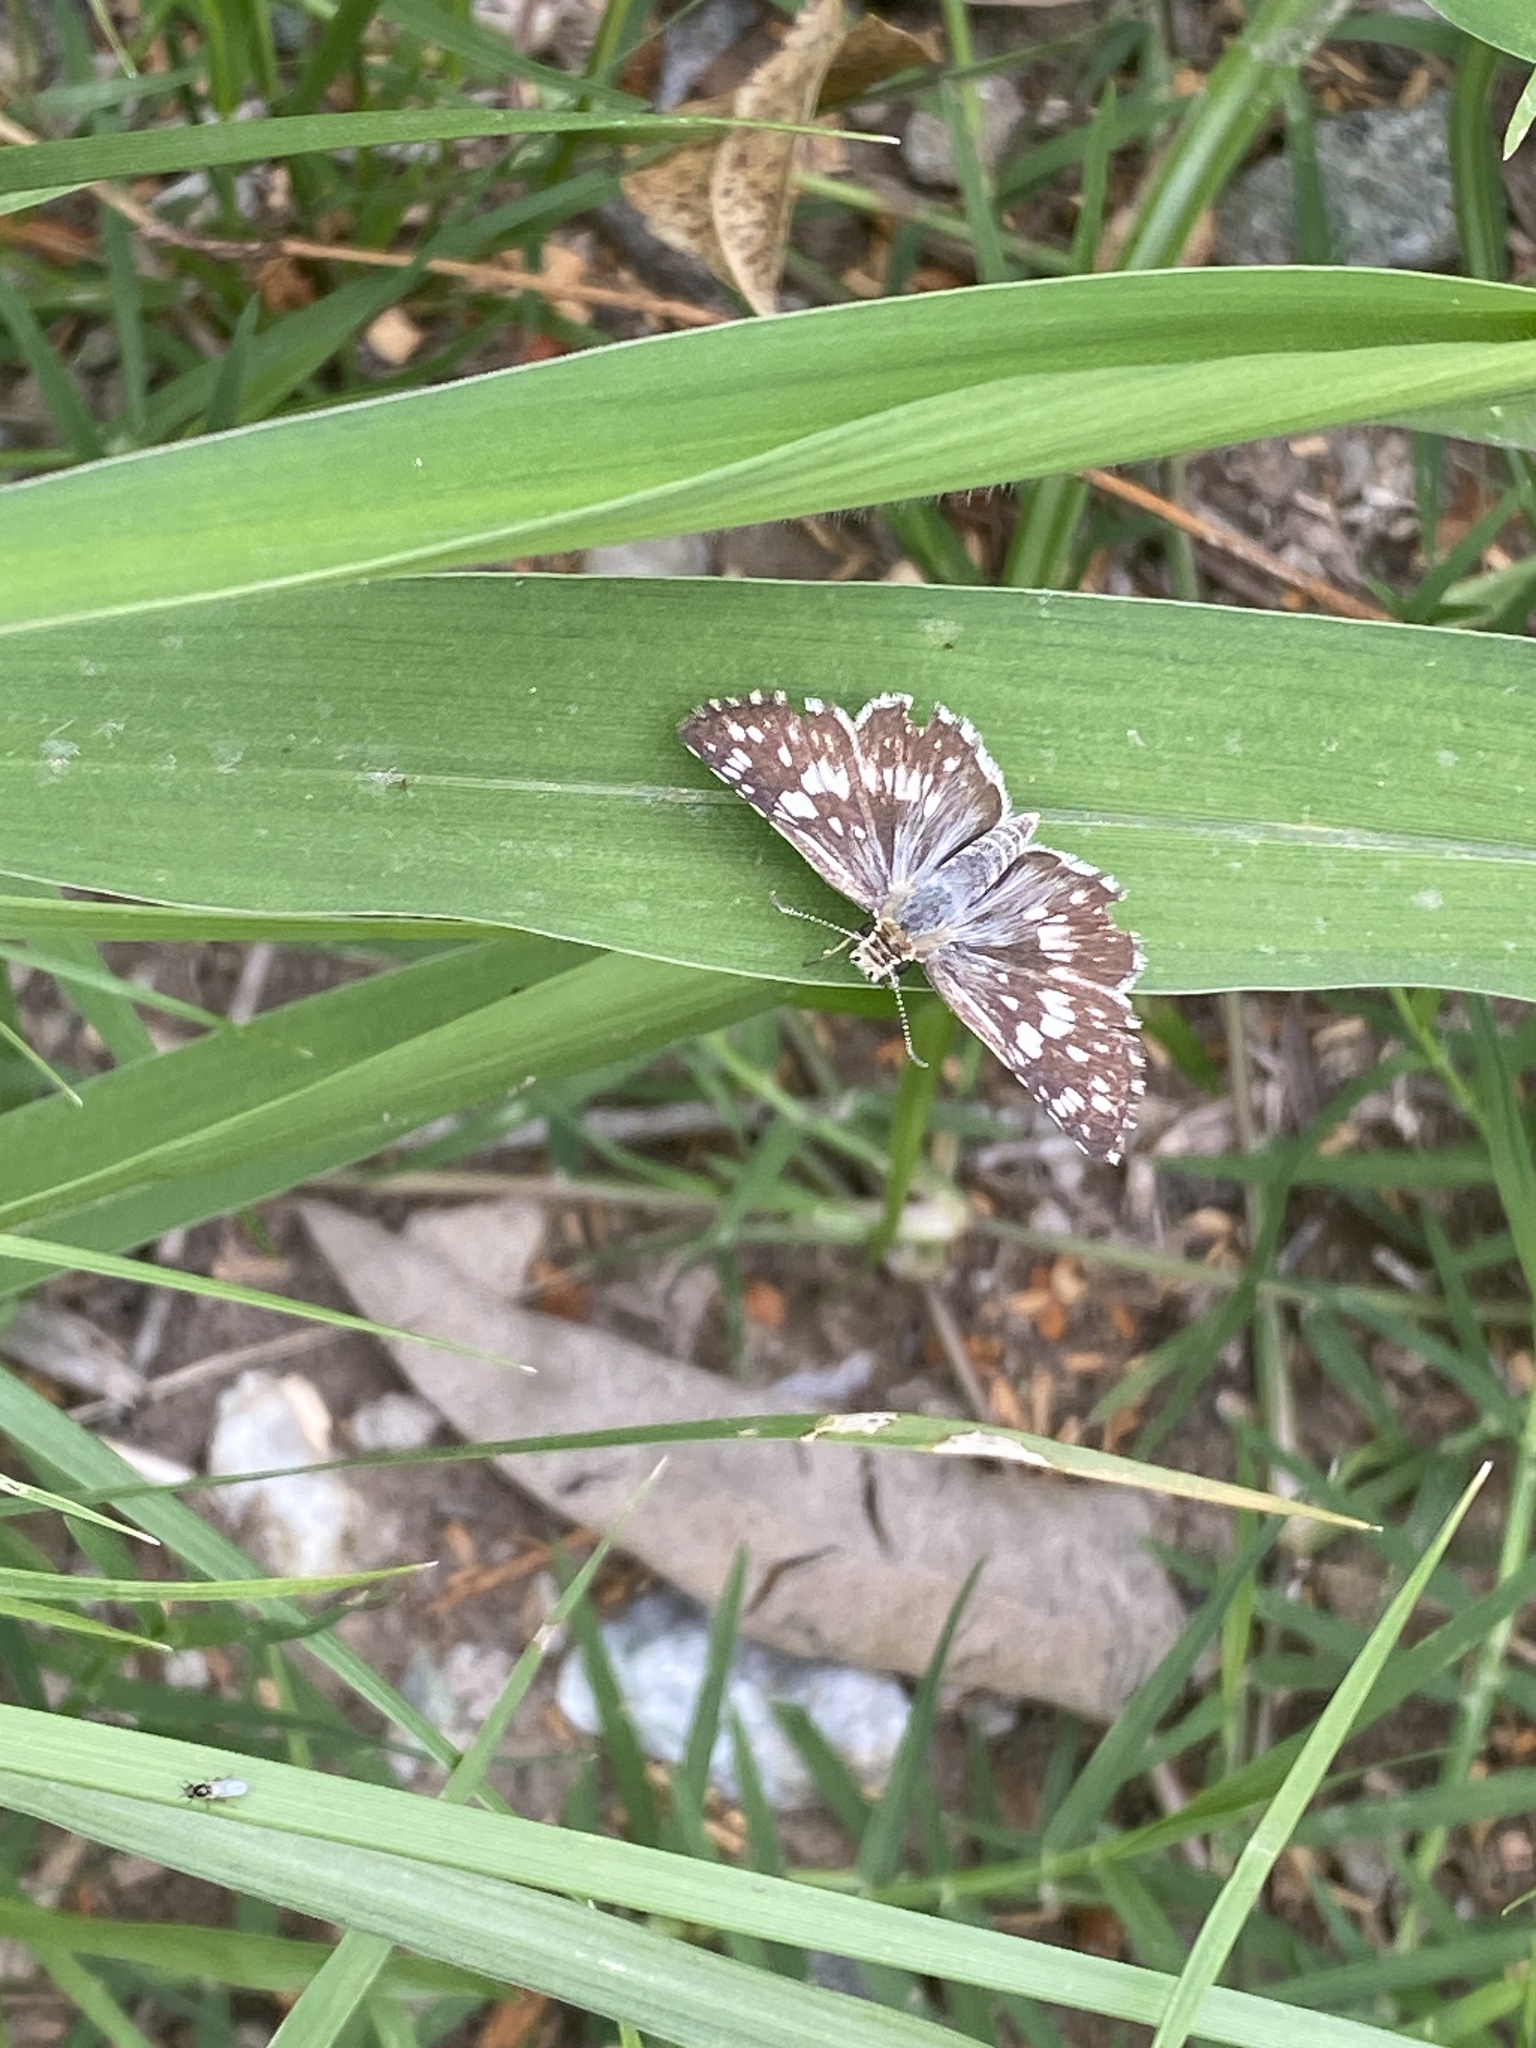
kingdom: Animalia
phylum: Arthropoda
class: Insecta
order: Lepidoptera
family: Hesperiidae
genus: Burnsius
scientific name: Burnsius orcynoides
